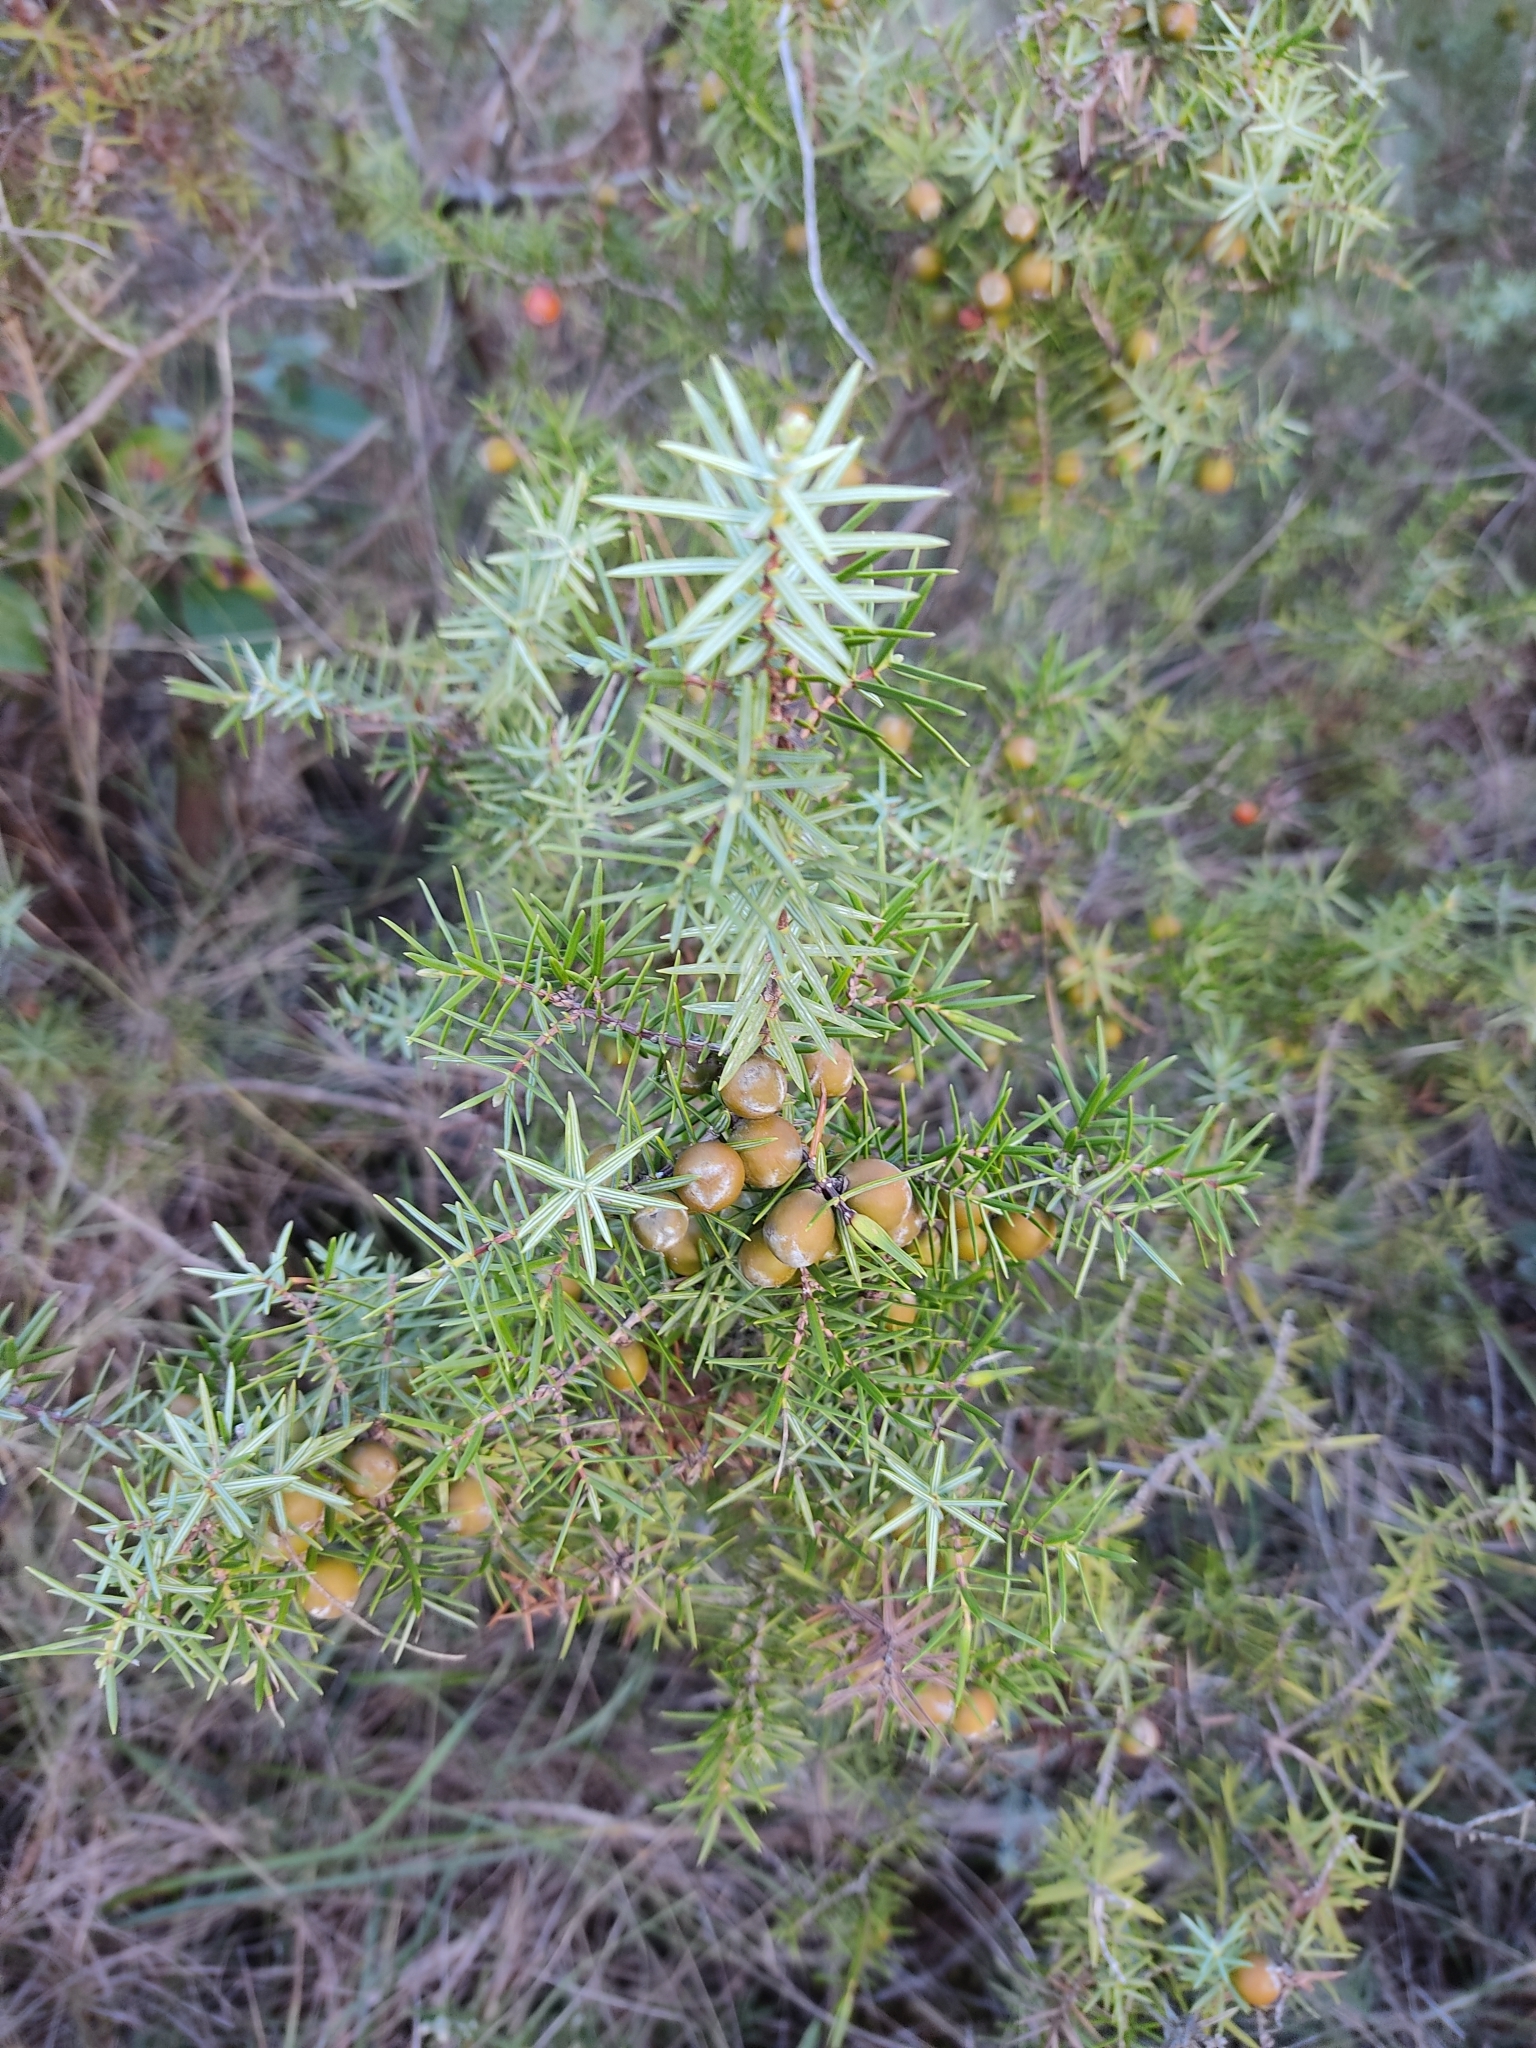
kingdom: Plantae
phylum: Tracheophyta
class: Pinopsida
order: Pinales
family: Cupressaceae
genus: Juniperus
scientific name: Juniperus oxycedrus
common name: Prickly juniper
